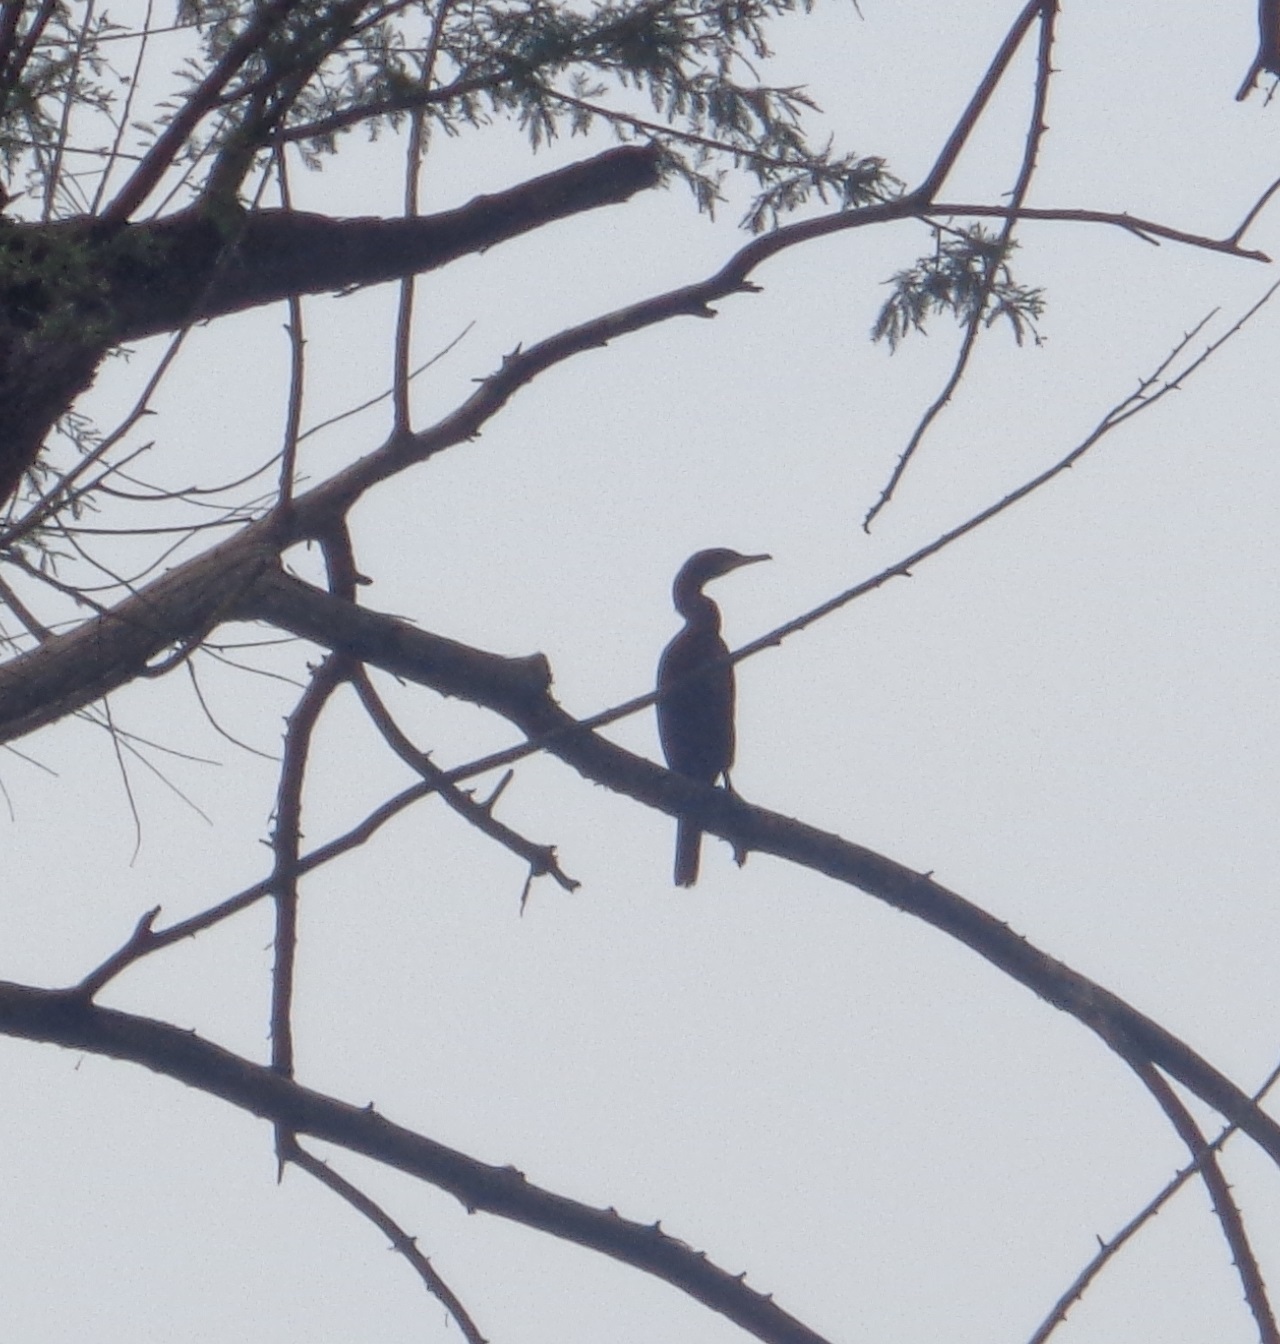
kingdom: Animalia
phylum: Chordata
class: Aves
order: Suliformes
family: Phalacrocoracidae
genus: Phalacrocorax
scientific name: Phalacrocorax brasilianus
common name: Neotropic cormorant
